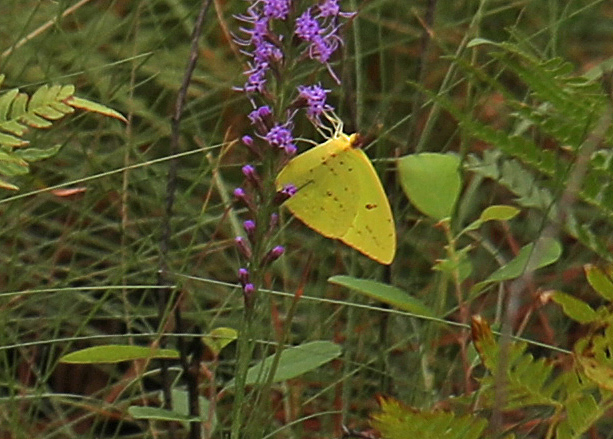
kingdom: Animalia
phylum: Arthropoda
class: Insecta
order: Lepidoptera
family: Pieridae
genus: Phoebis
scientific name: Phoebis sennae
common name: Cloudless sulphur
